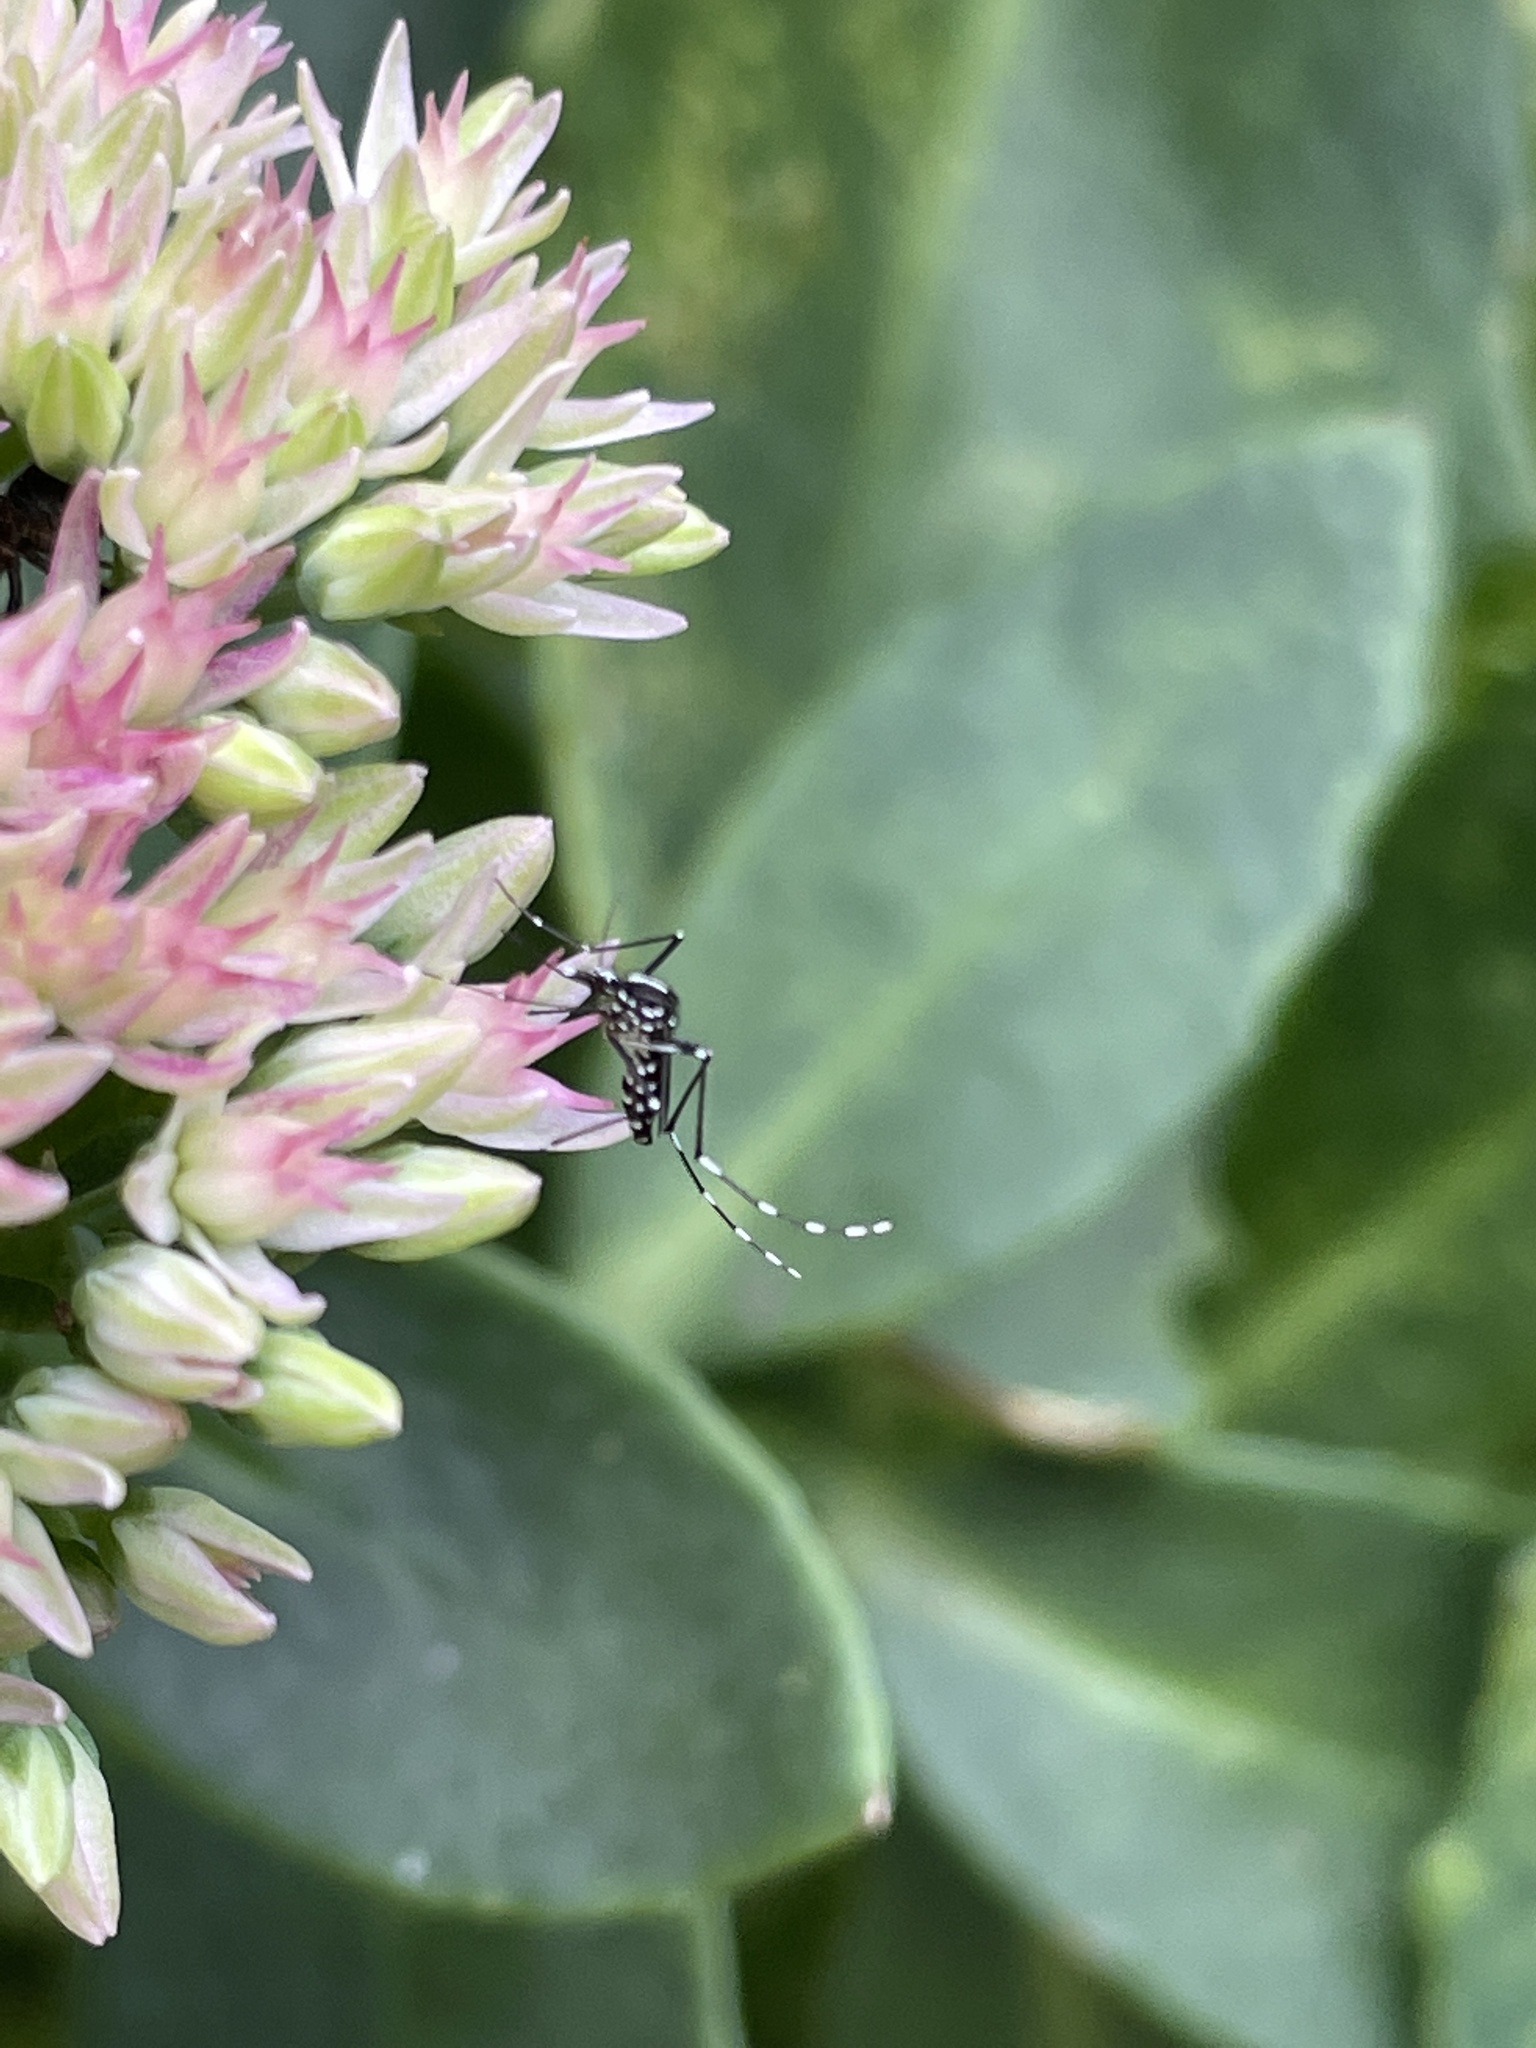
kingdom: Animalia
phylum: Arthropoda
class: Insecta
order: Diptera
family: Culicidae
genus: Aedes
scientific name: Aedes albopictus
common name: Tiger mosquito
